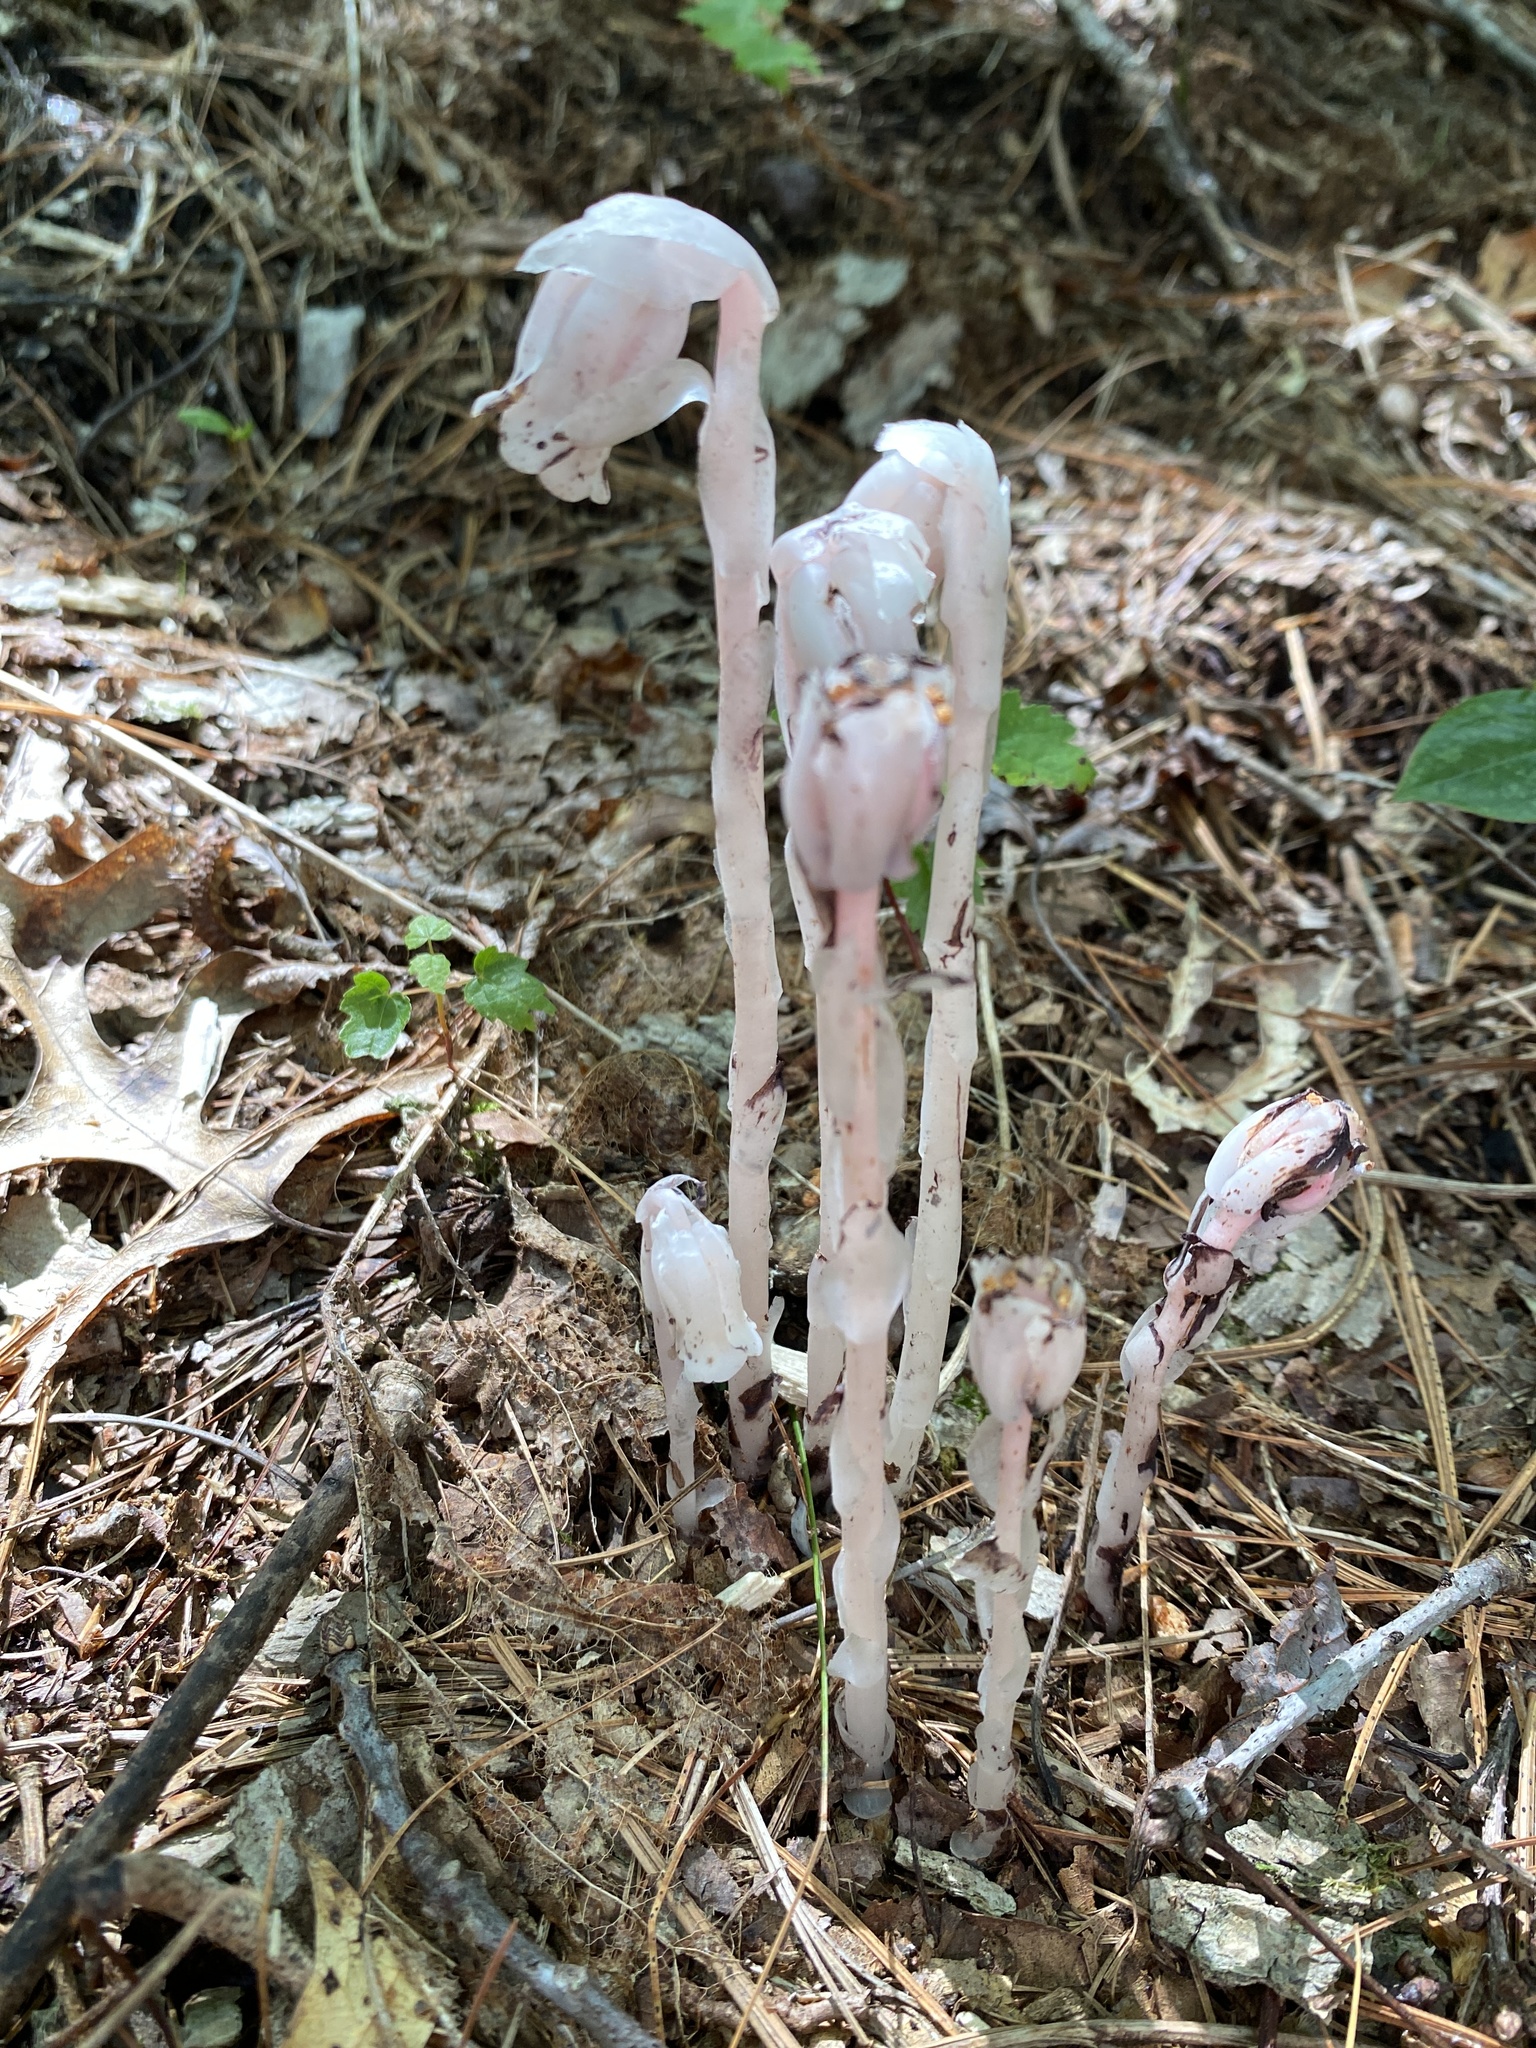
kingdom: Plantae
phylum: Tracheophyta
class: Magnoliopsida
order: Ericales
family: Ericaceae
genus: Monotropa
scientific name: Monotropa uniflora
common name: Convulsion root
